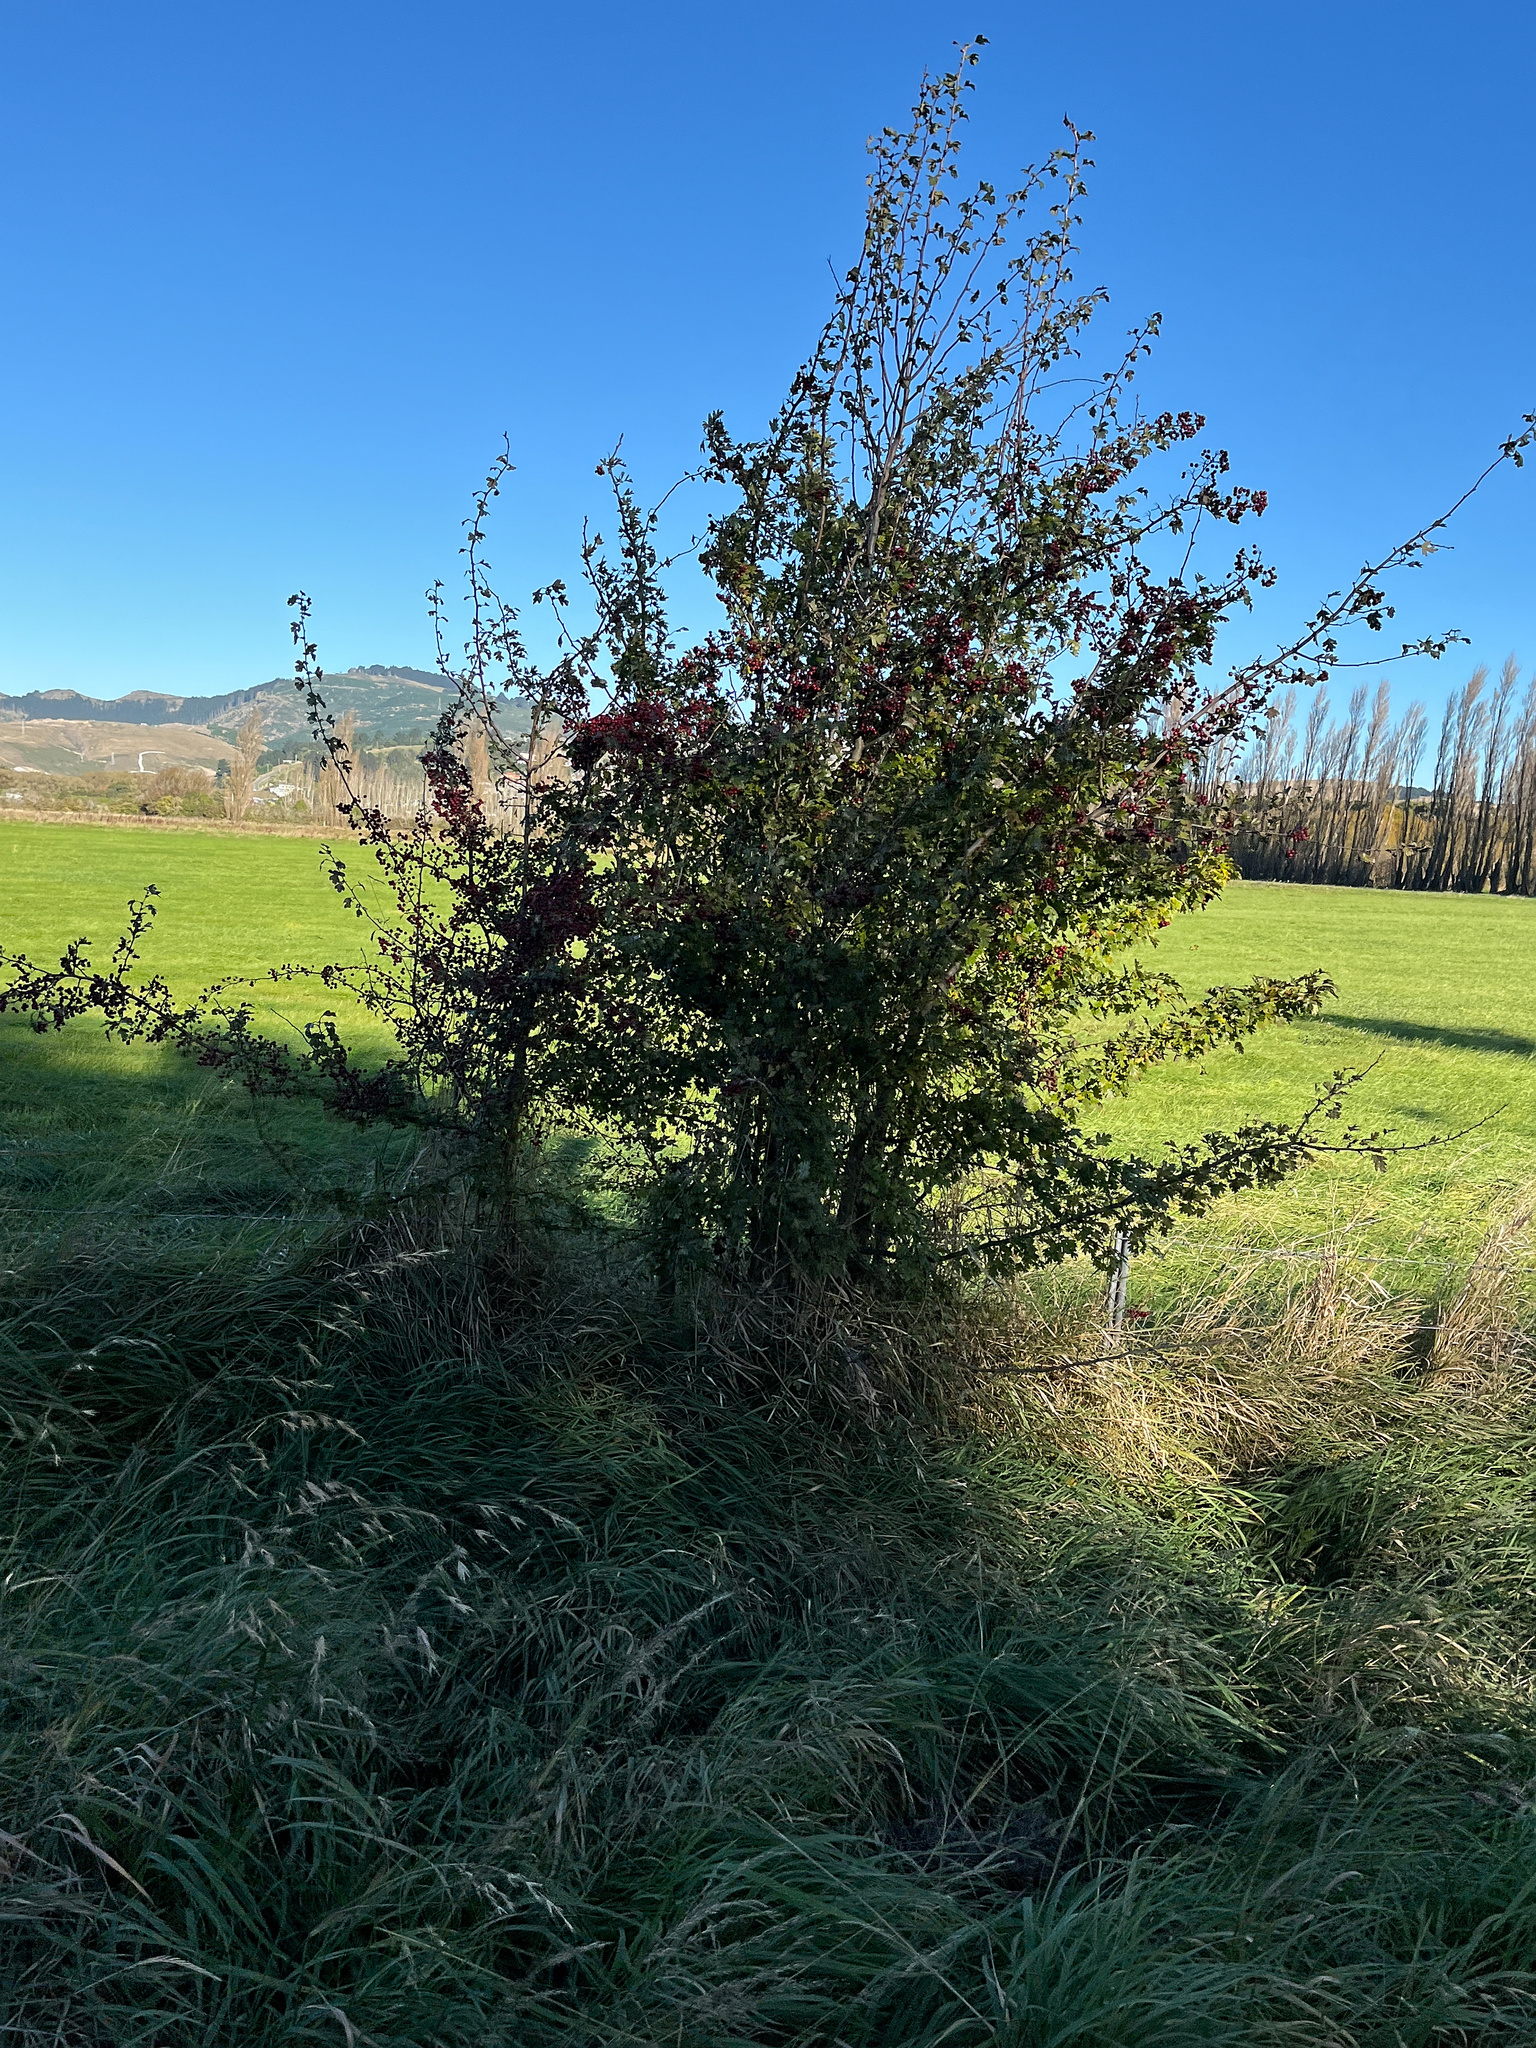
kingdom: Plantae
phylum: Tracheophyta
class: Magnoliopsida
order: Rosales
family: Rosaceae
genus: Crataegus
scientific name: Crataegus monogyna
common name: Hawthorn
